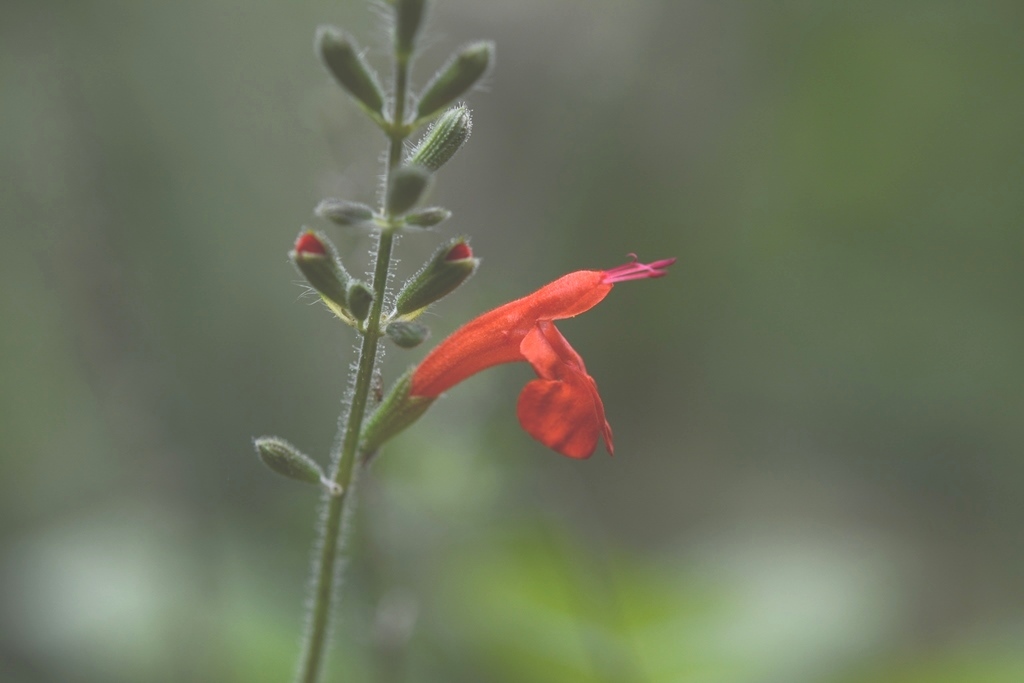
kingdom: Plantae
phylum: Tracheophyta
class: Magnoliopsida
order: Lamiales
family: Lamiaceae
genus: Salvia
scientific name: Salvia coccinea
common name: Blood sage
